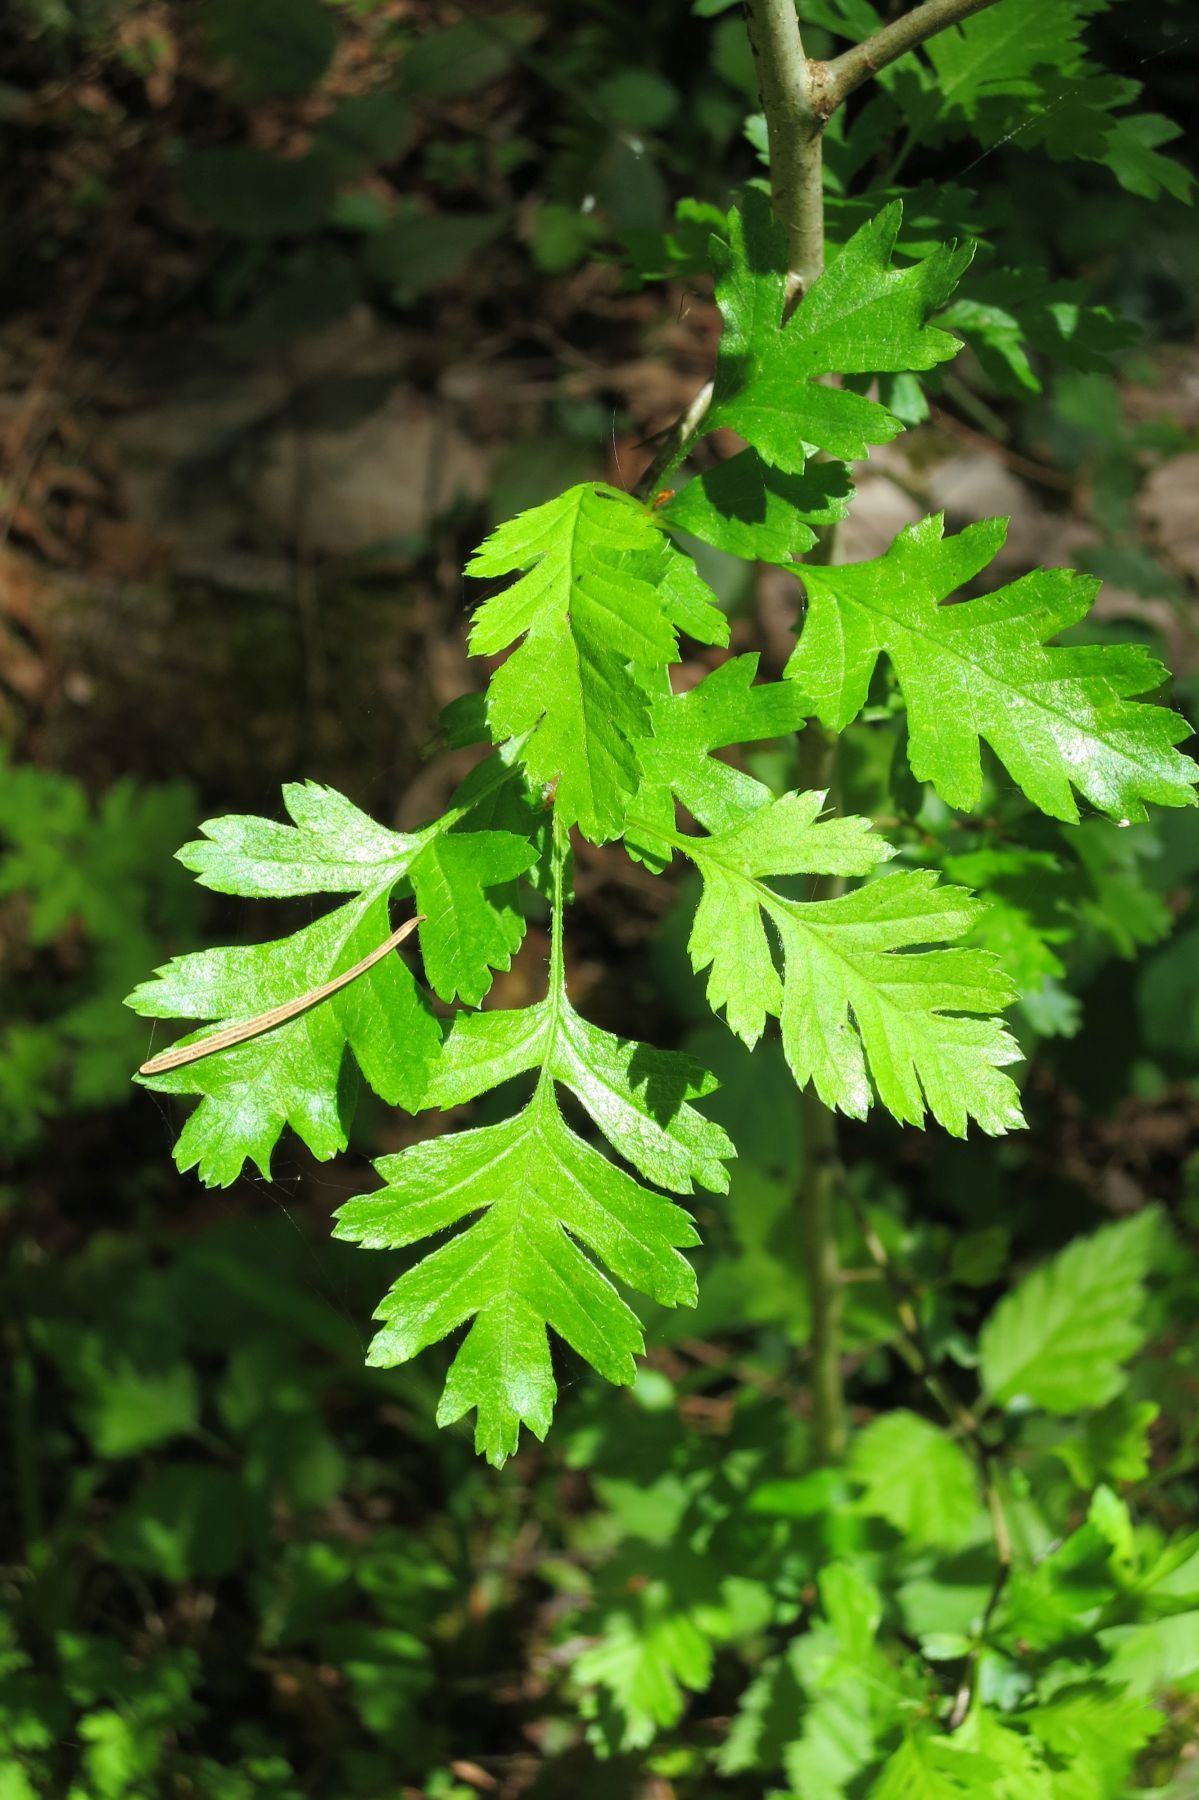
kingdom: Plantae
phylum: Tracheophyta
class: Magnoliopsida
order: Rosales
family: Rosaceae
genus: Crataegus
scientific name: Crataegus monogyna
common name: Hawthorn
